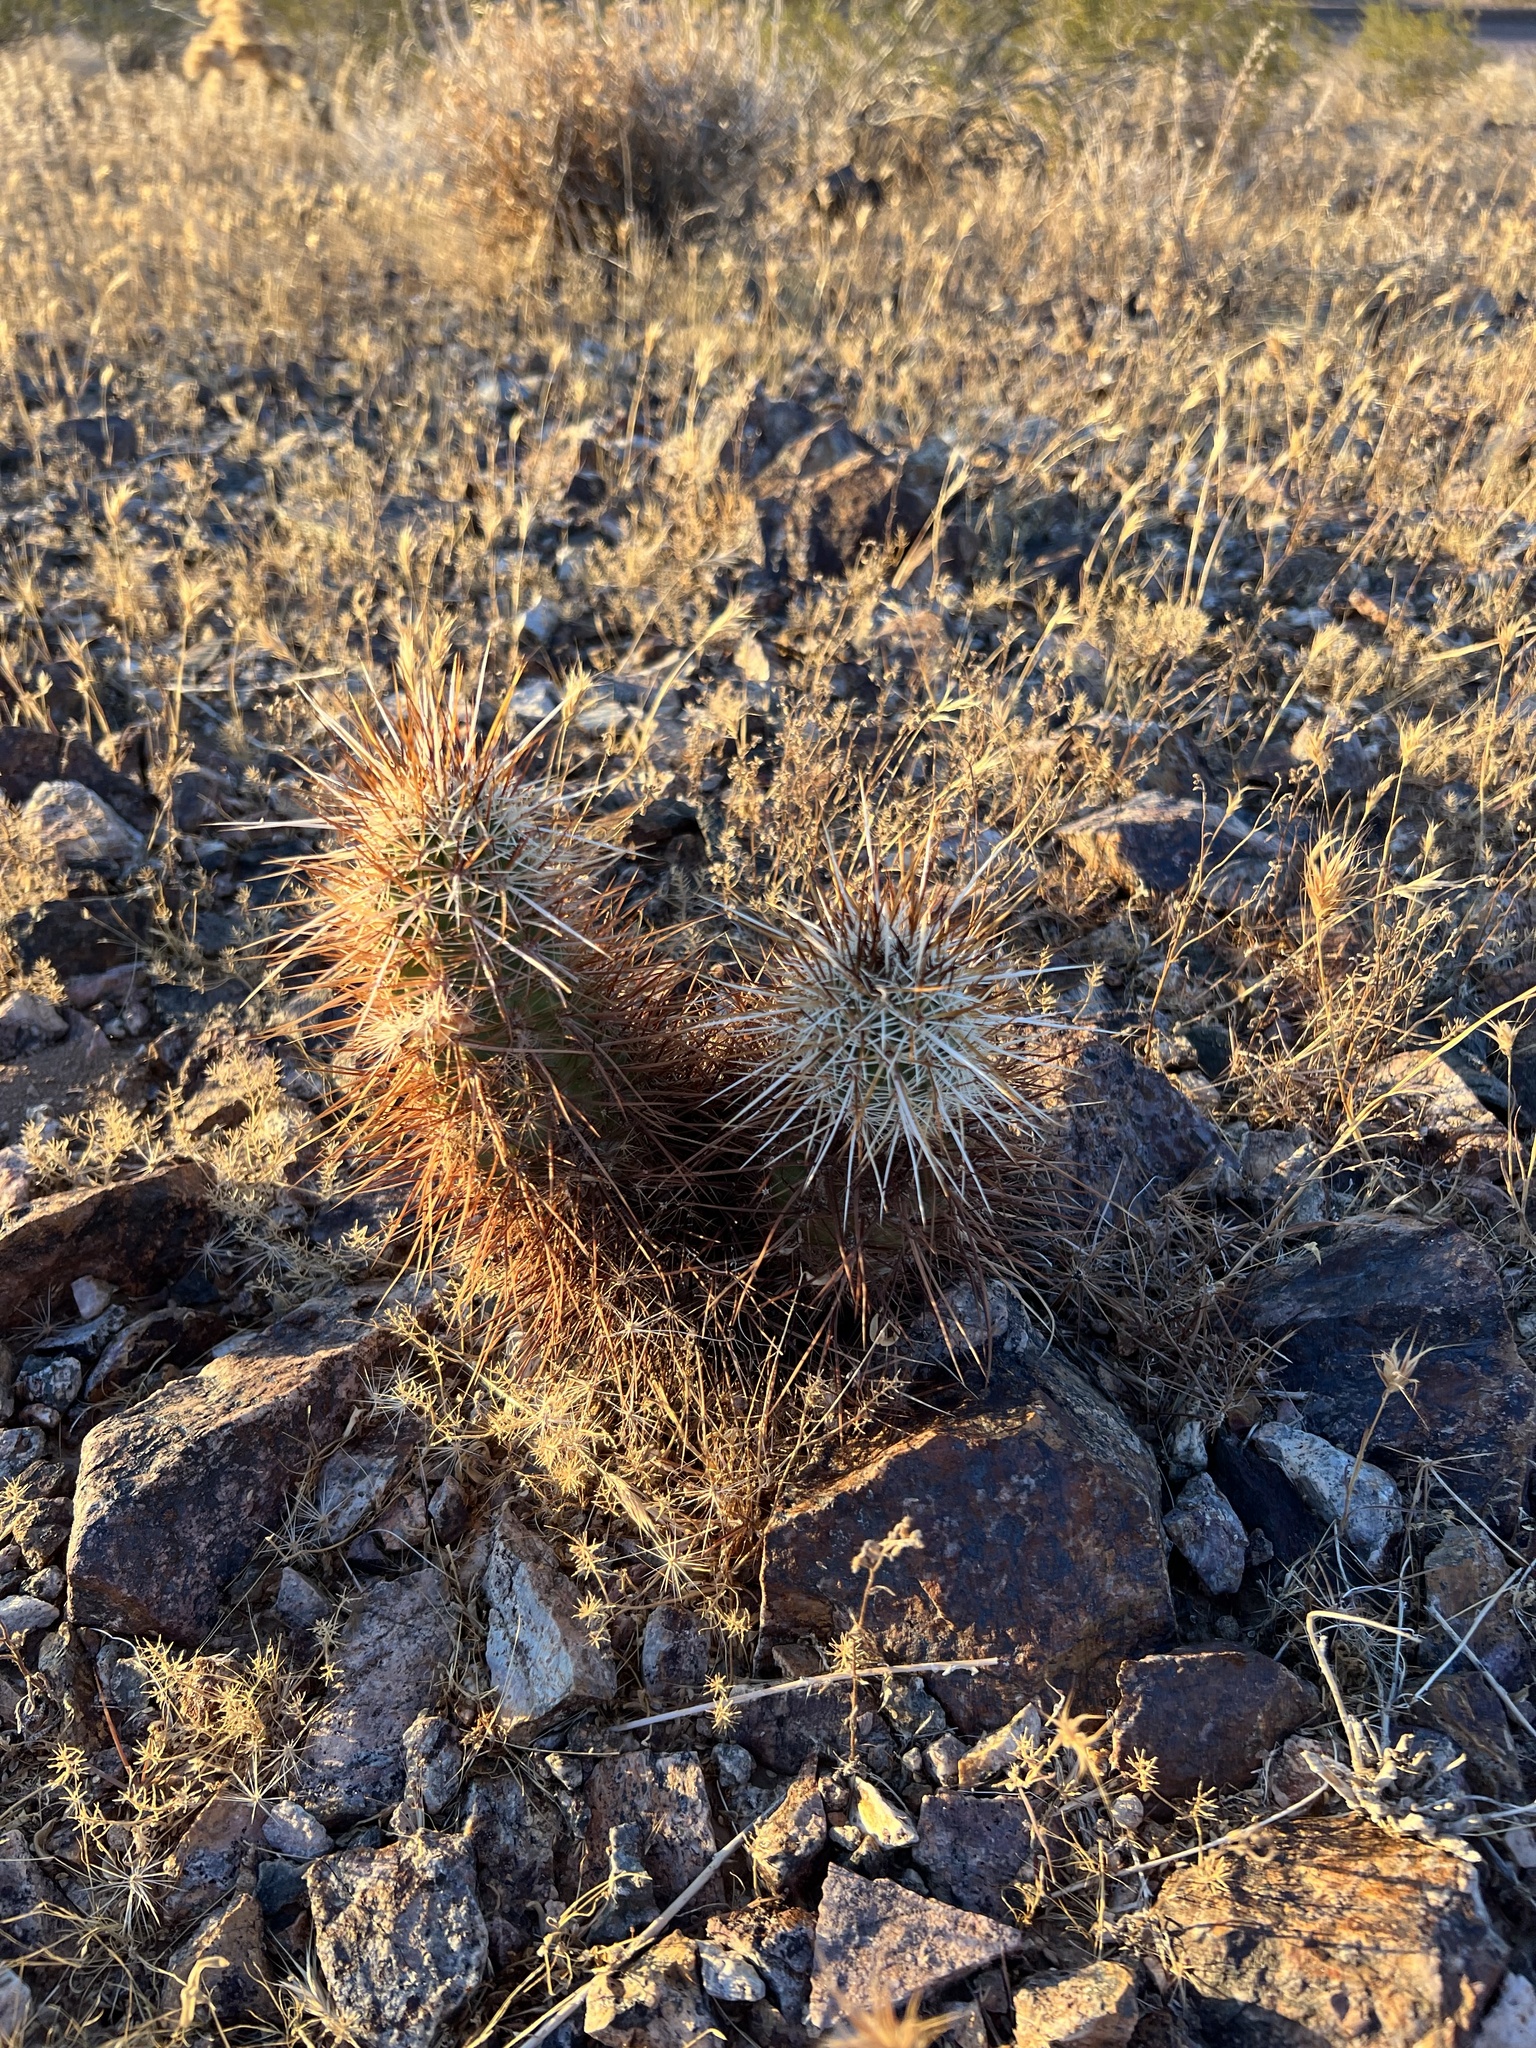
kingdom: Plantae
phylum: Tracheophyta
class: Magnoliopsida
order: Caryophyllales
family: Cactaceae
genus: Echinocereus
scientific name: Echinocereus engelmannii
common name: Engelmann's hedgehog cactus
